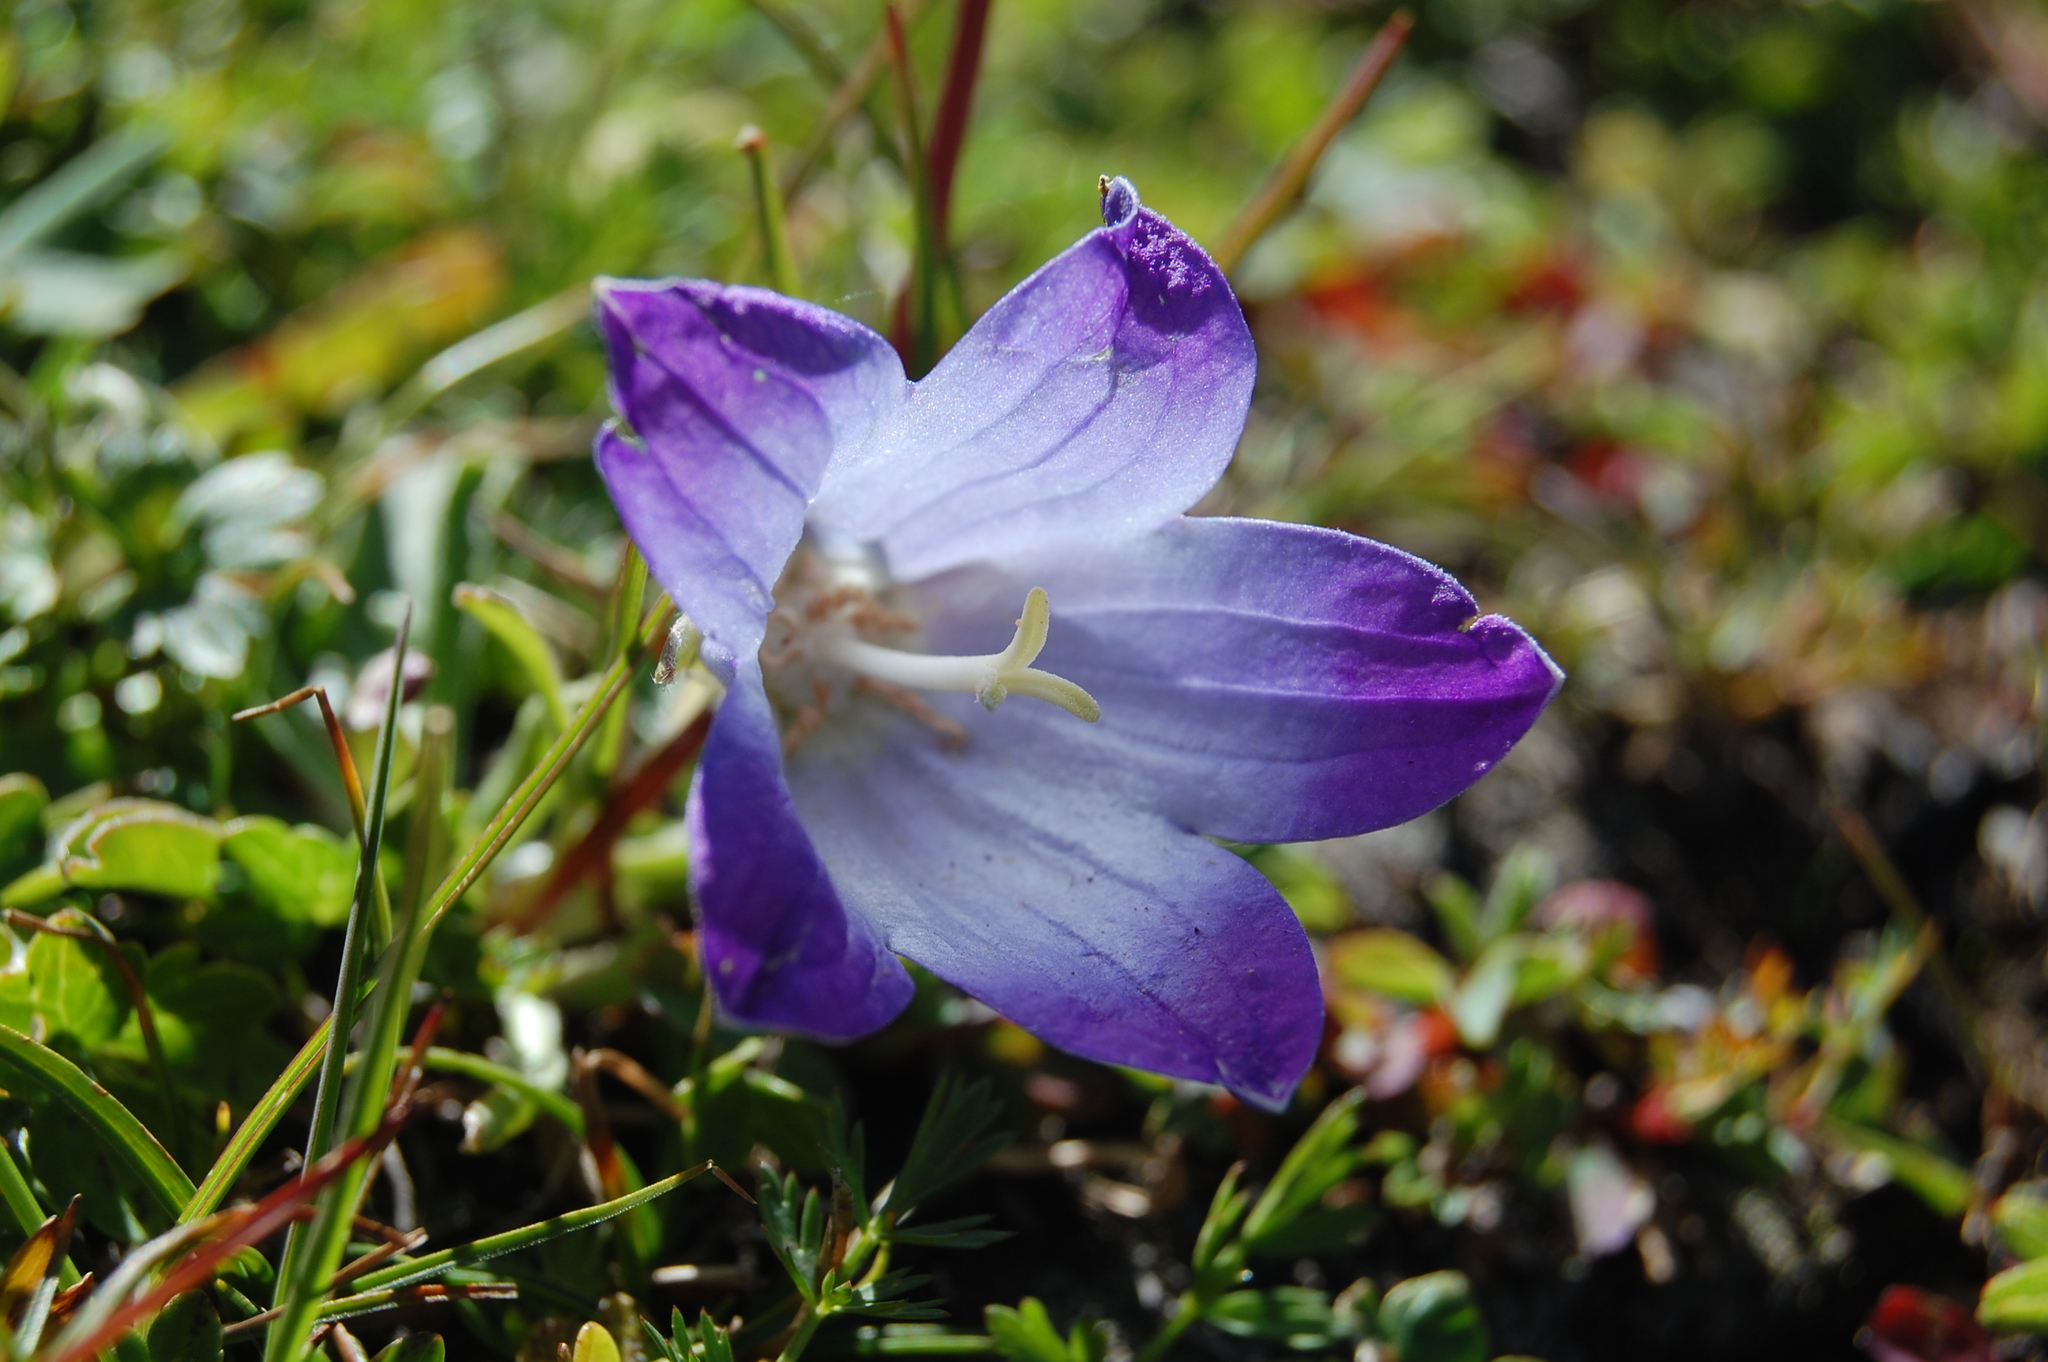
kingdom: Plantae
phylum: Tracheophyta
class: Magnoliopsida
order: Asterales
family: Campanulaceae
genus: Campanula
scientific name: Campanula tridentata
